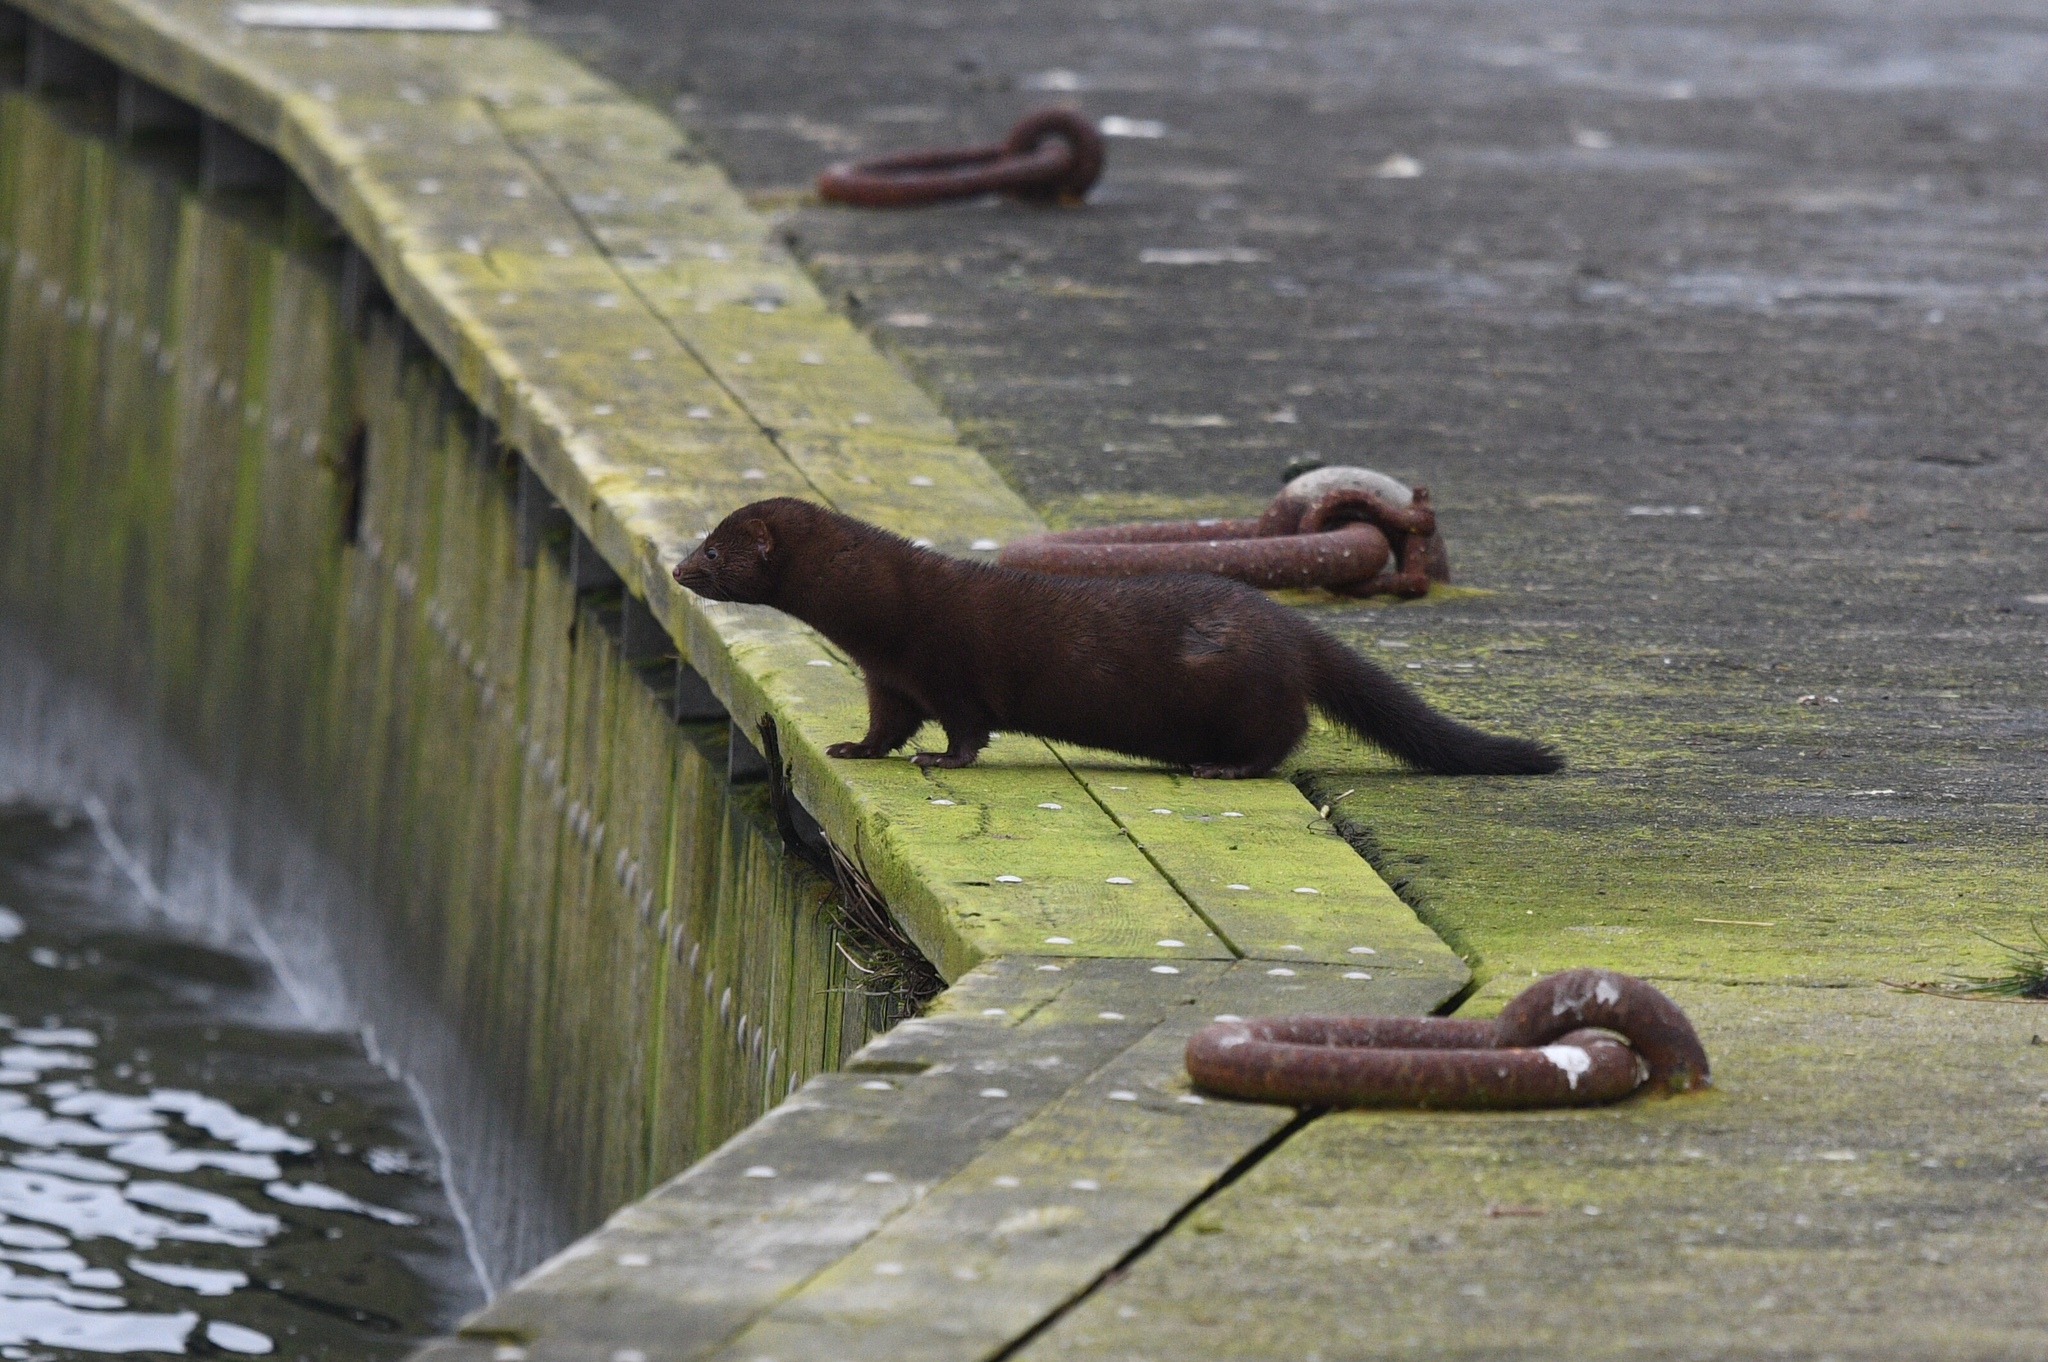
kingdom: Animalia
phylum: Chordata
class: Mammalia
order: Carnivora
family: Mustelidae
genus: Mustela
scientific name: Mustela
